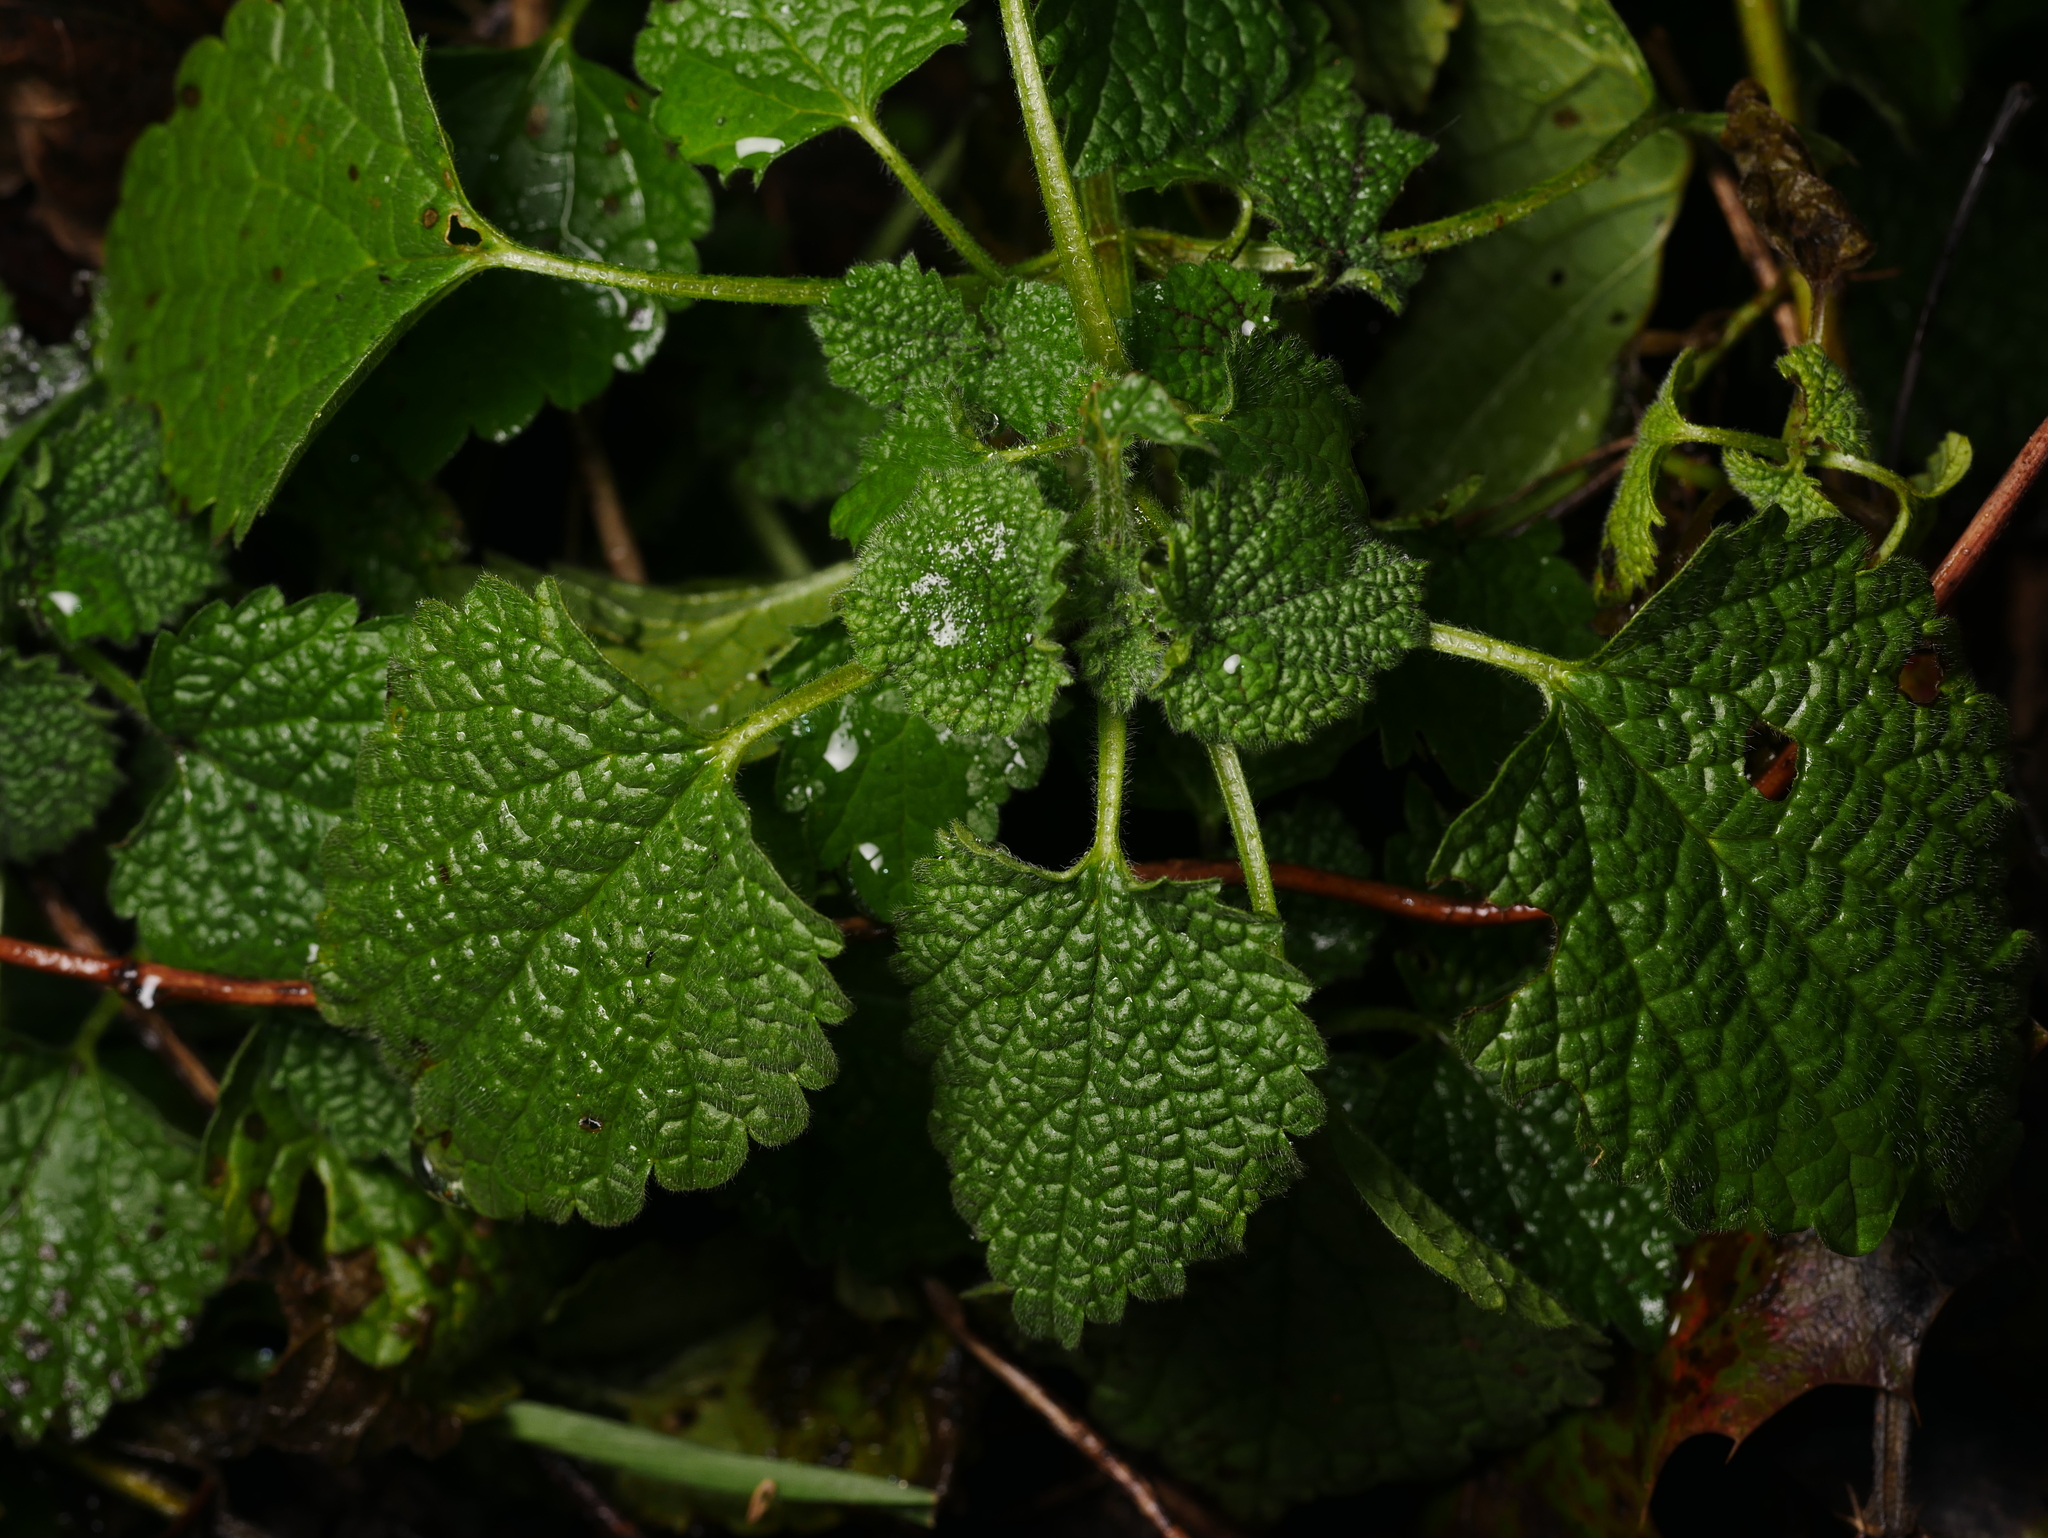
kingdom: Plantae
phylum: Tracheophyta
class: Magnoliopsida
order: Lamiales
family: Lamiaceae
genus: Ballota
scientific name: Ballota nigra
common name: Black horehound
